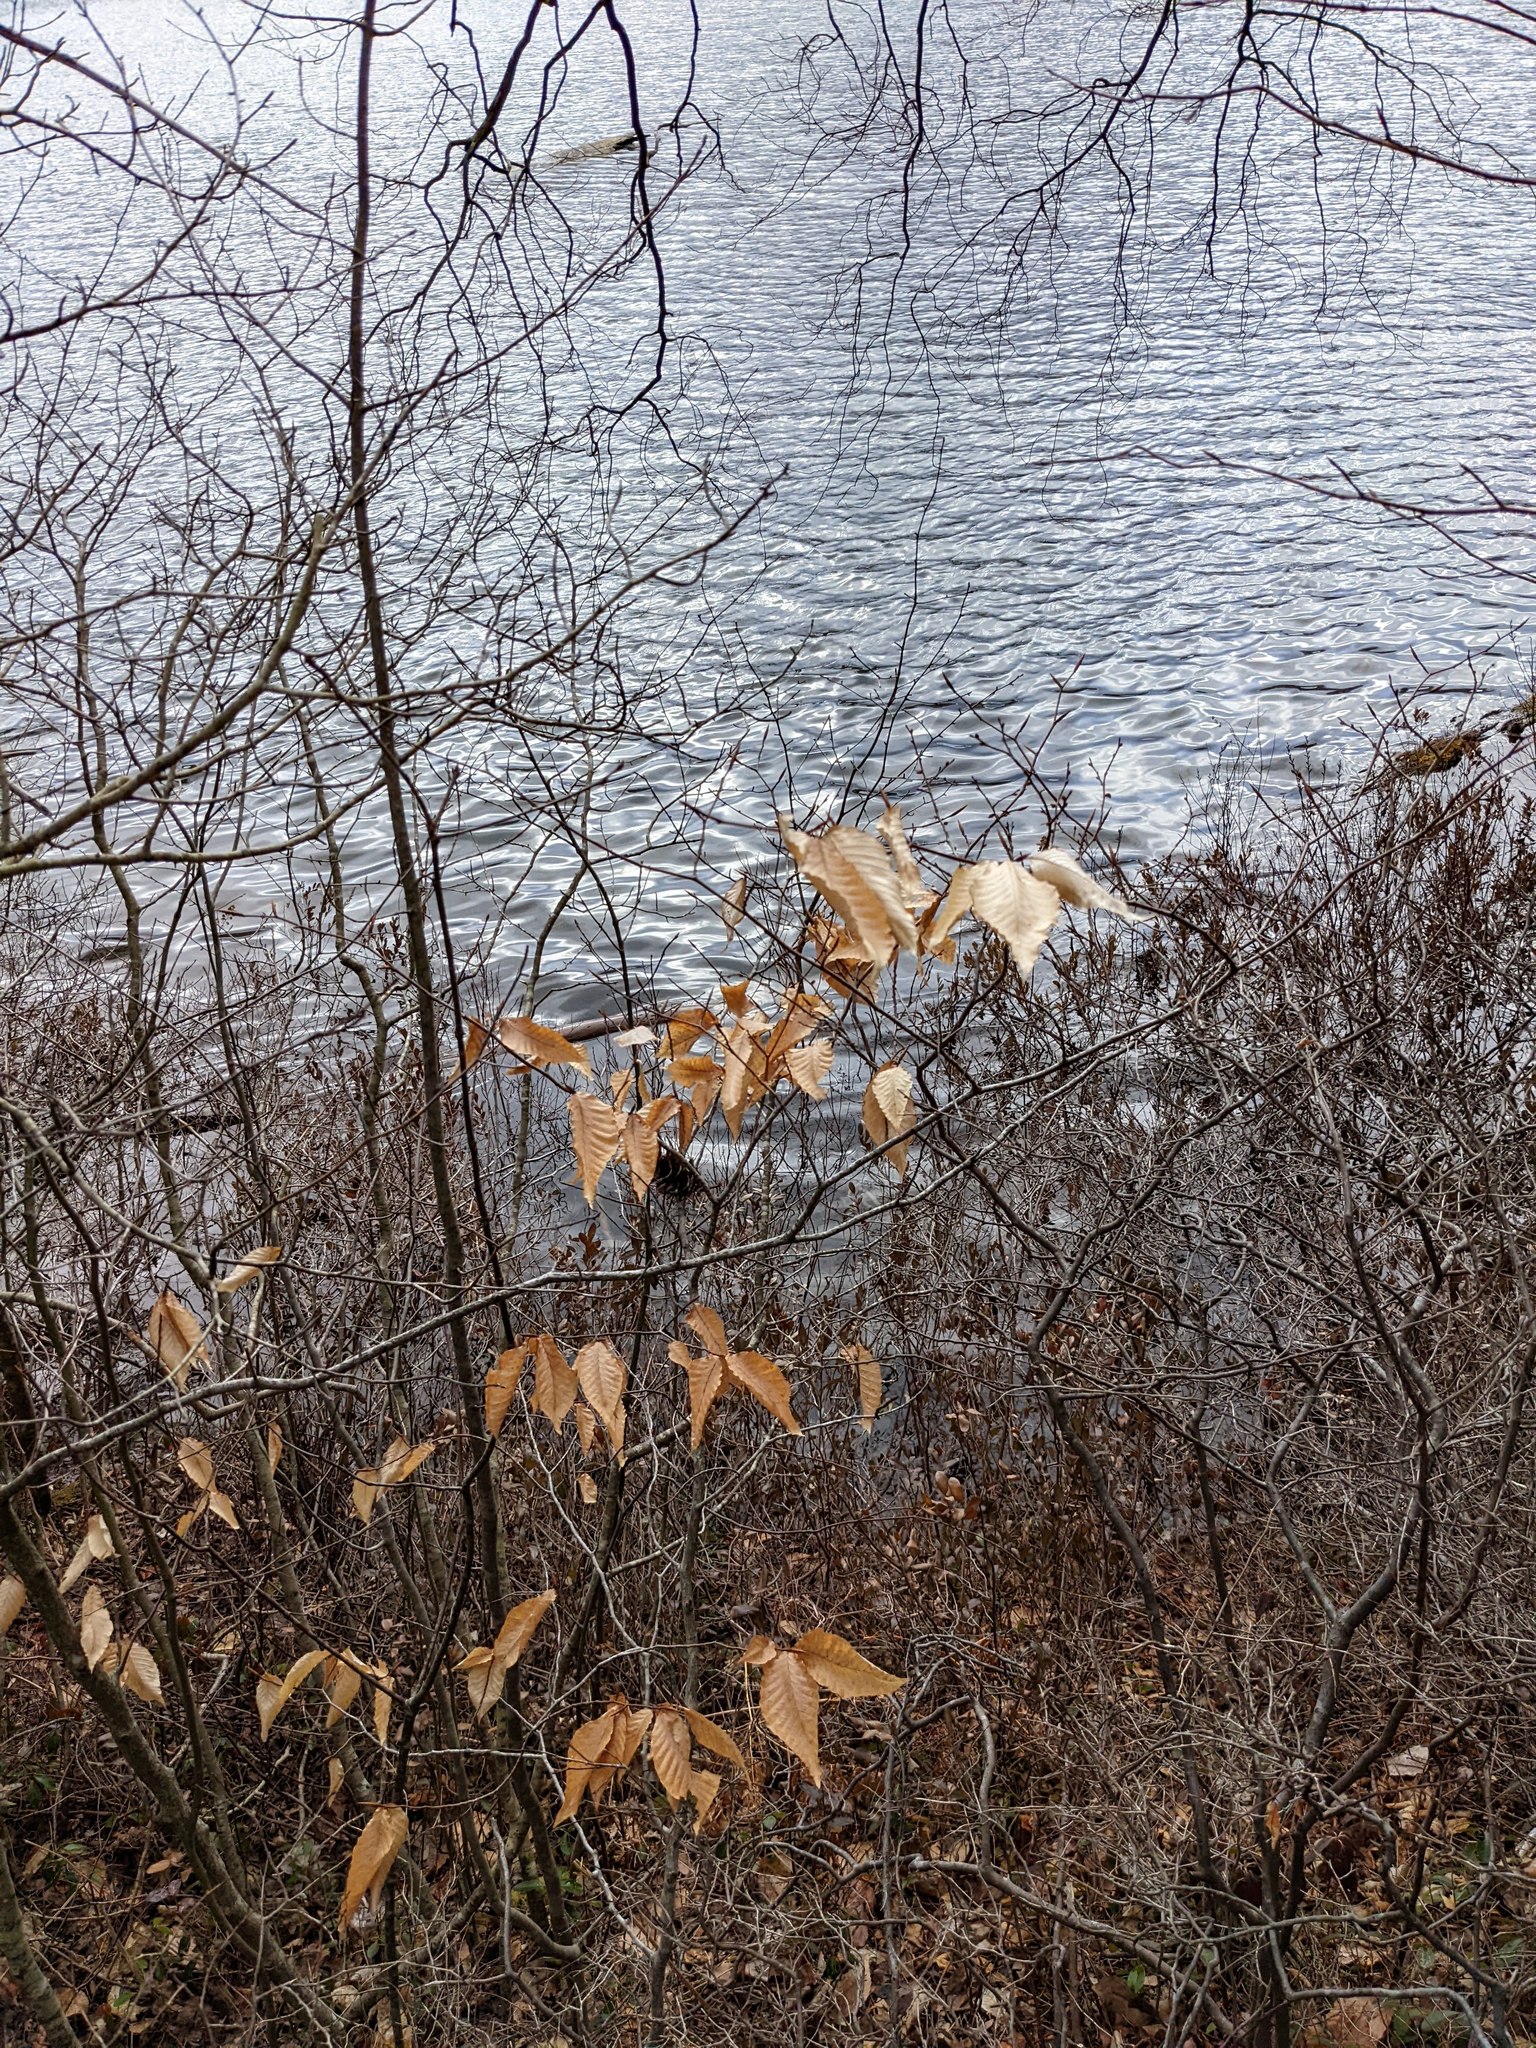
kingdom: Plantae
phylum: Tracheophyta
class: Magnoliopsida
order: Fagales
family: Fagaceae
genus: Fagus
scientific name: Fagus grandifolia
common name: American beech
